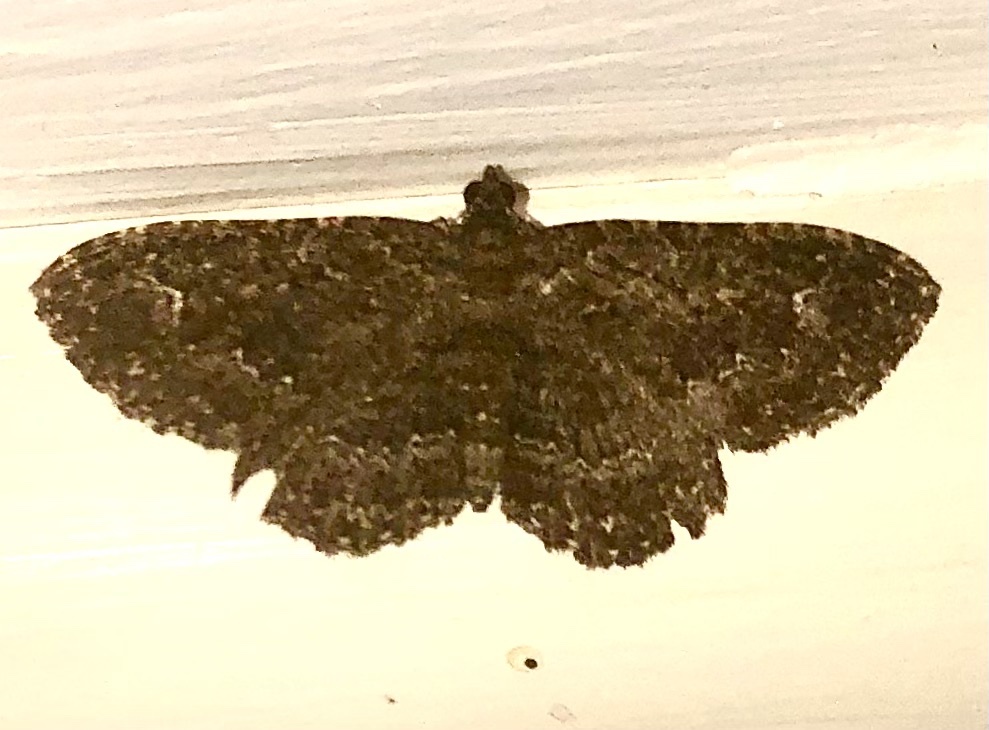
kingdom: Animalia
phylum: Arthropoda
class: Insecta
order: Lepidoptera
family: Geometridae
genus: Disclisioprocta
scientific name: Disclisioprocta stellata
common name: Somber carpet
